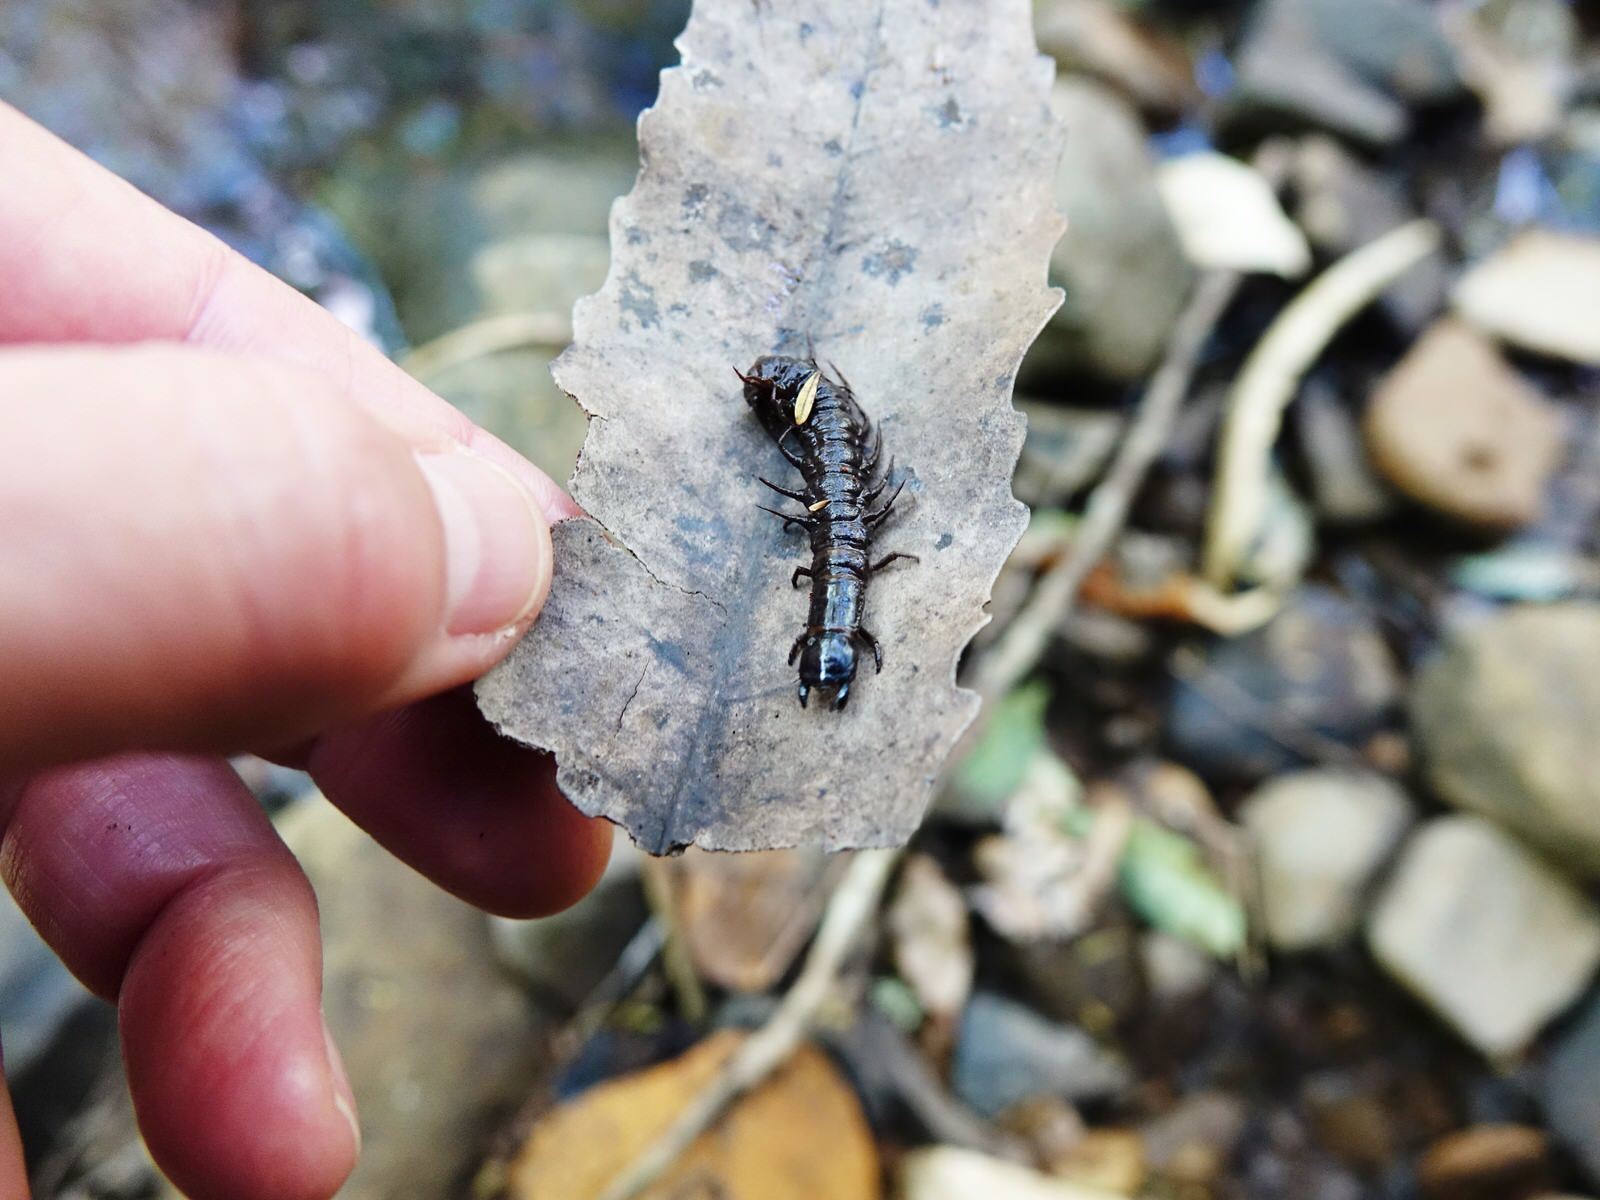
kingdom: Animalia
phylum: Arthropoda
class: Insecta
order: Megaloptera
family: Corydalidae
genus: Archichauliodes
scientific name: Archichauliodes diversus
